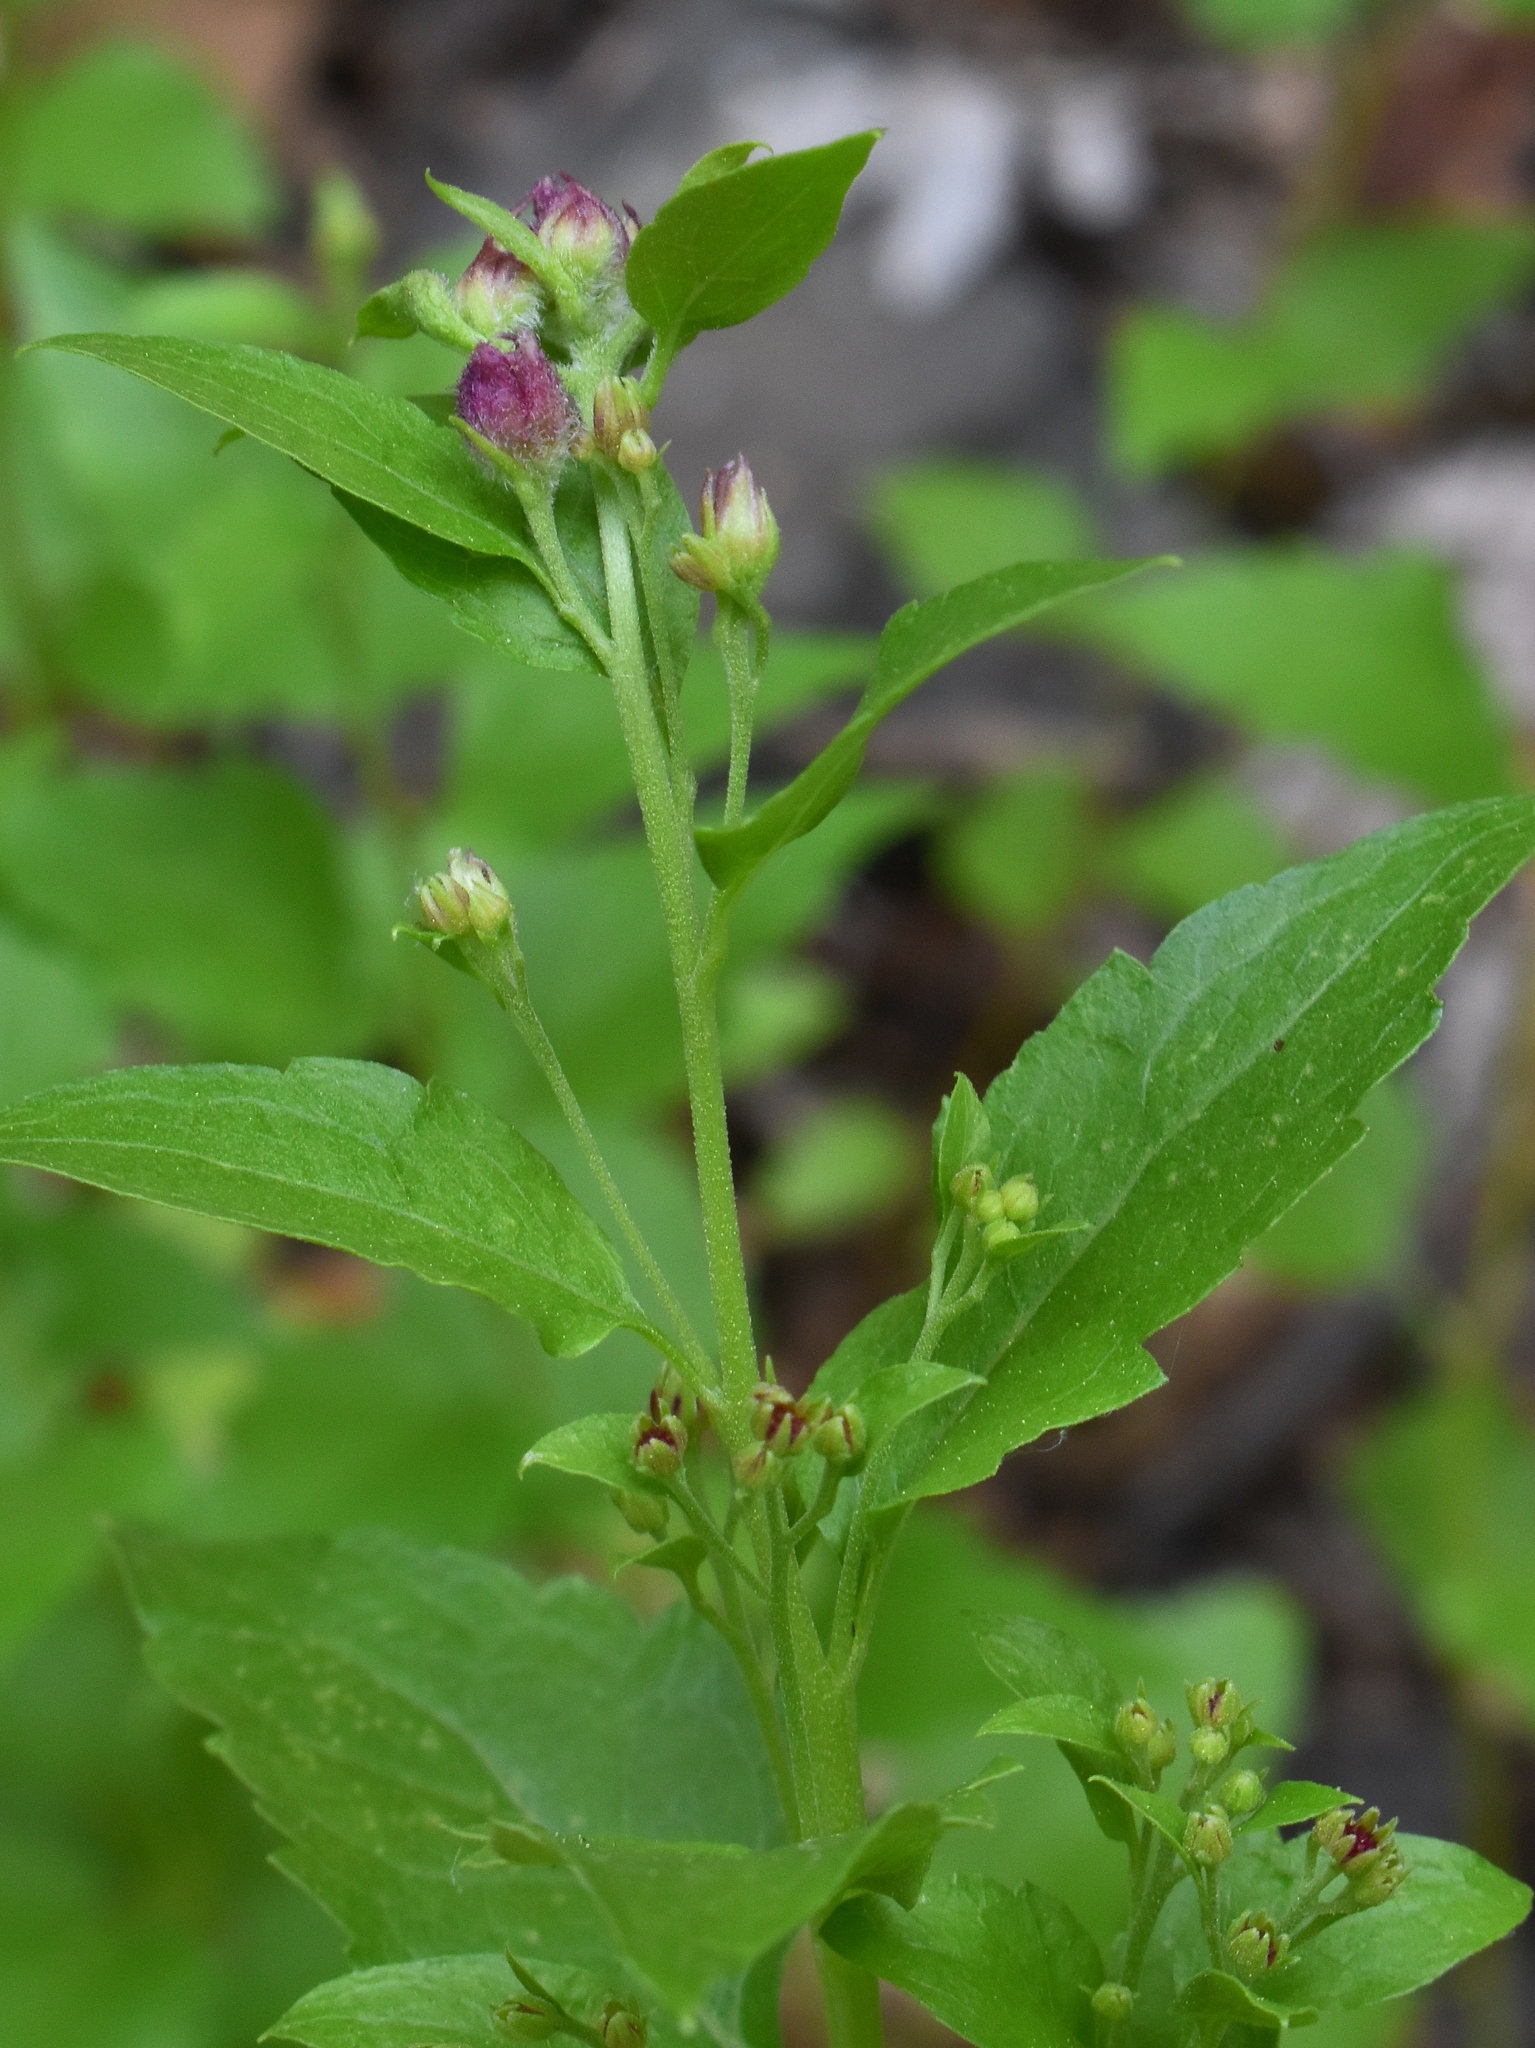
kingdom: Plantae
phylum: Tracheophyta
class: Magnoliopsida
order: Asterales
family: Asteraceae
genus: Ageratina
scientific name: Ageratina occidentalis
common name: Western snakeroot
